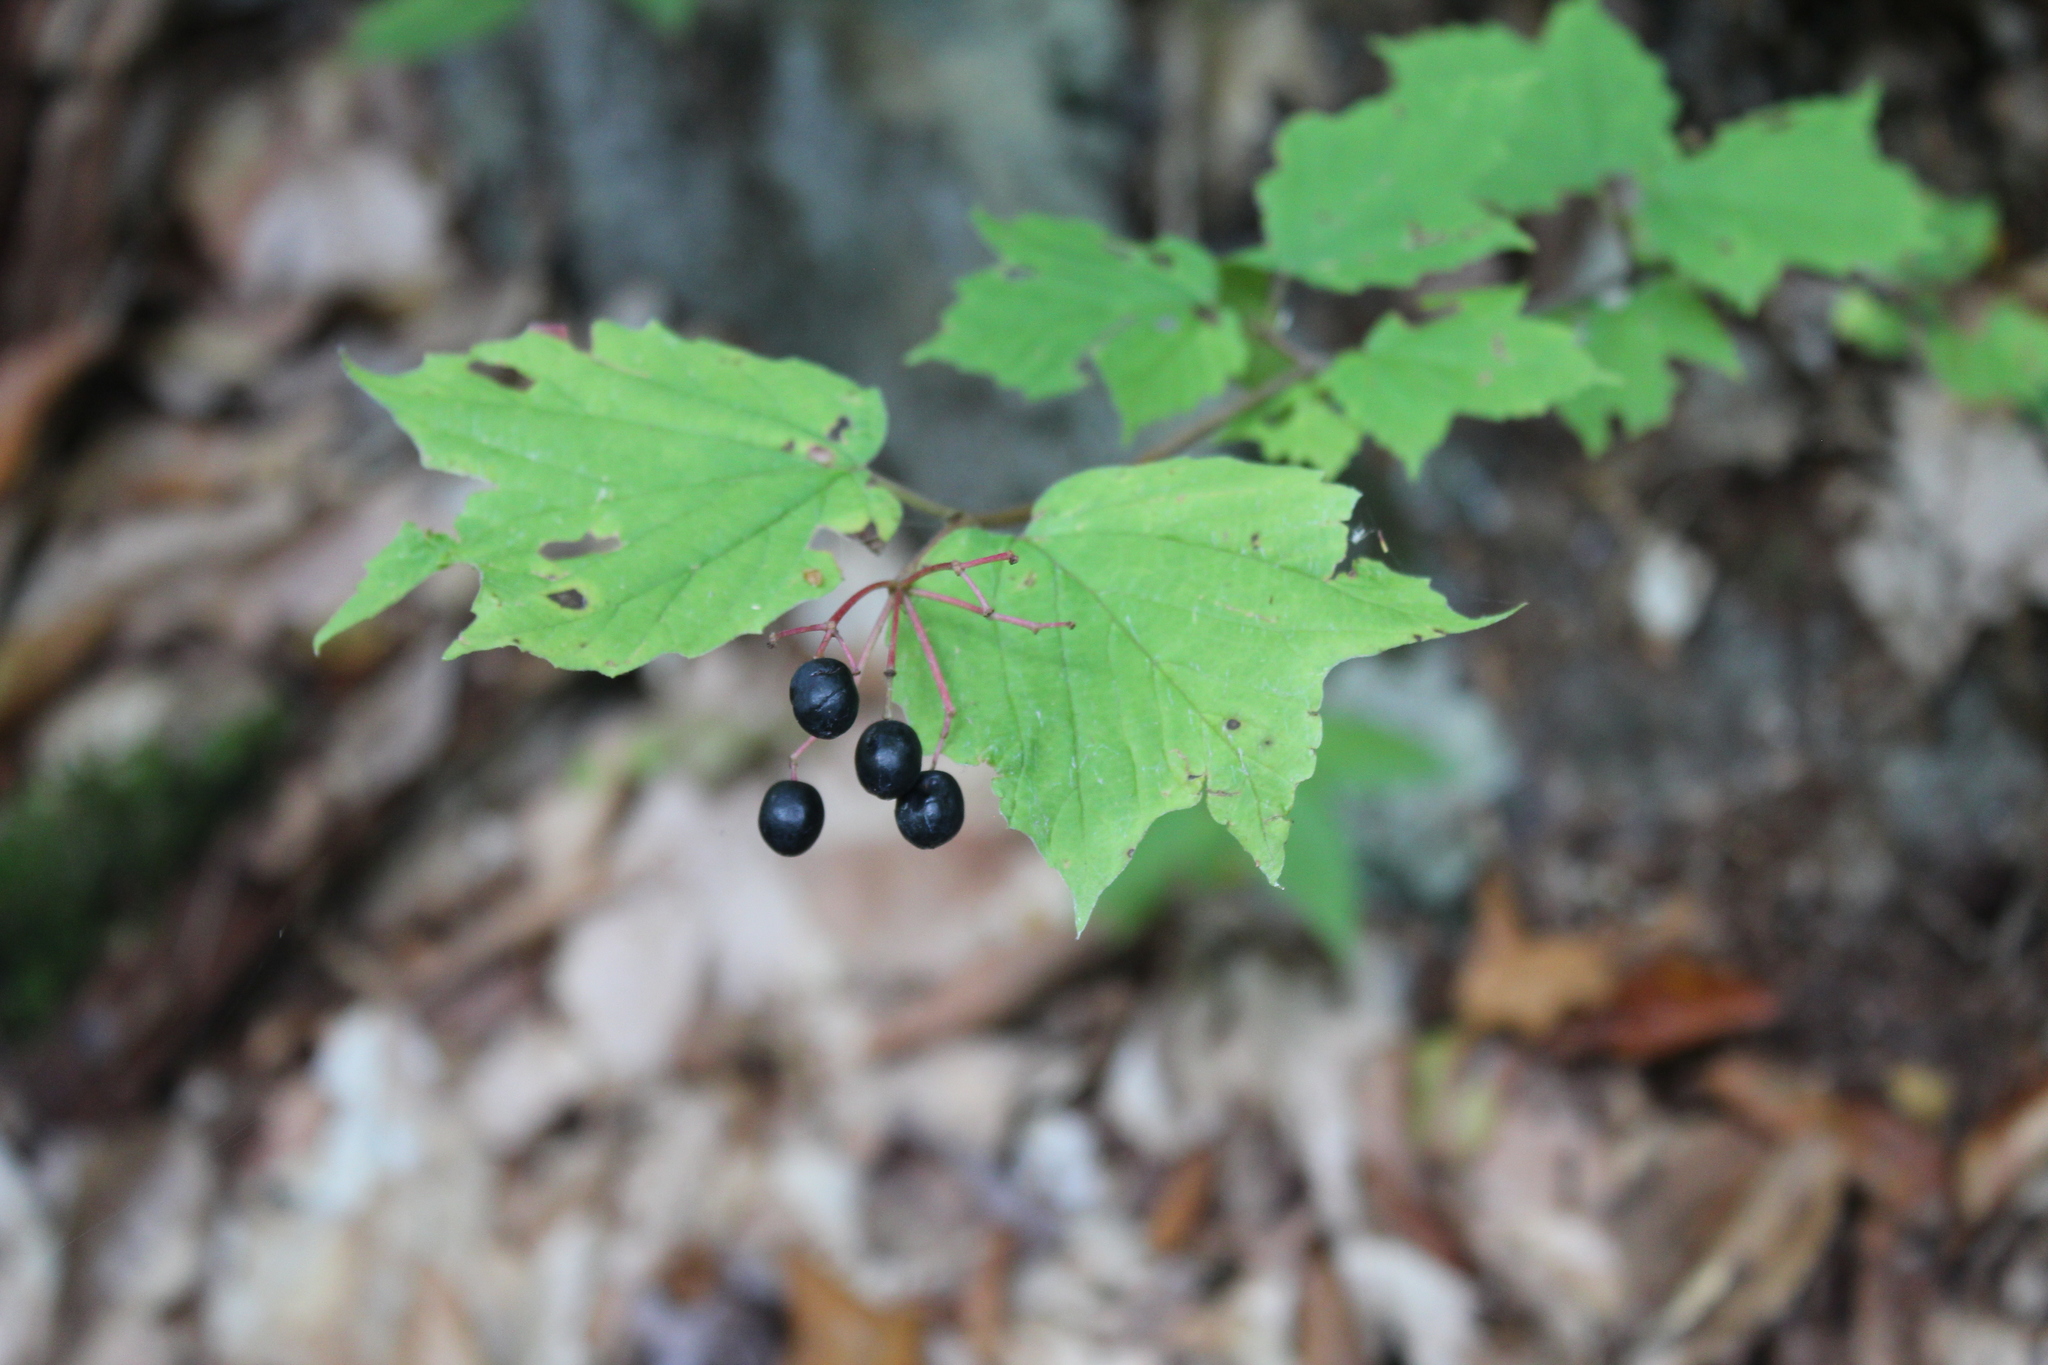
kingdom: Plantae
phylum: Tracheophyta
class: Magnoliopsida
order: Dipsacales
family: Viburnaceae
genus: Viburnum
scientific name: Viburnum acerifolium
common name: Dockmackie
